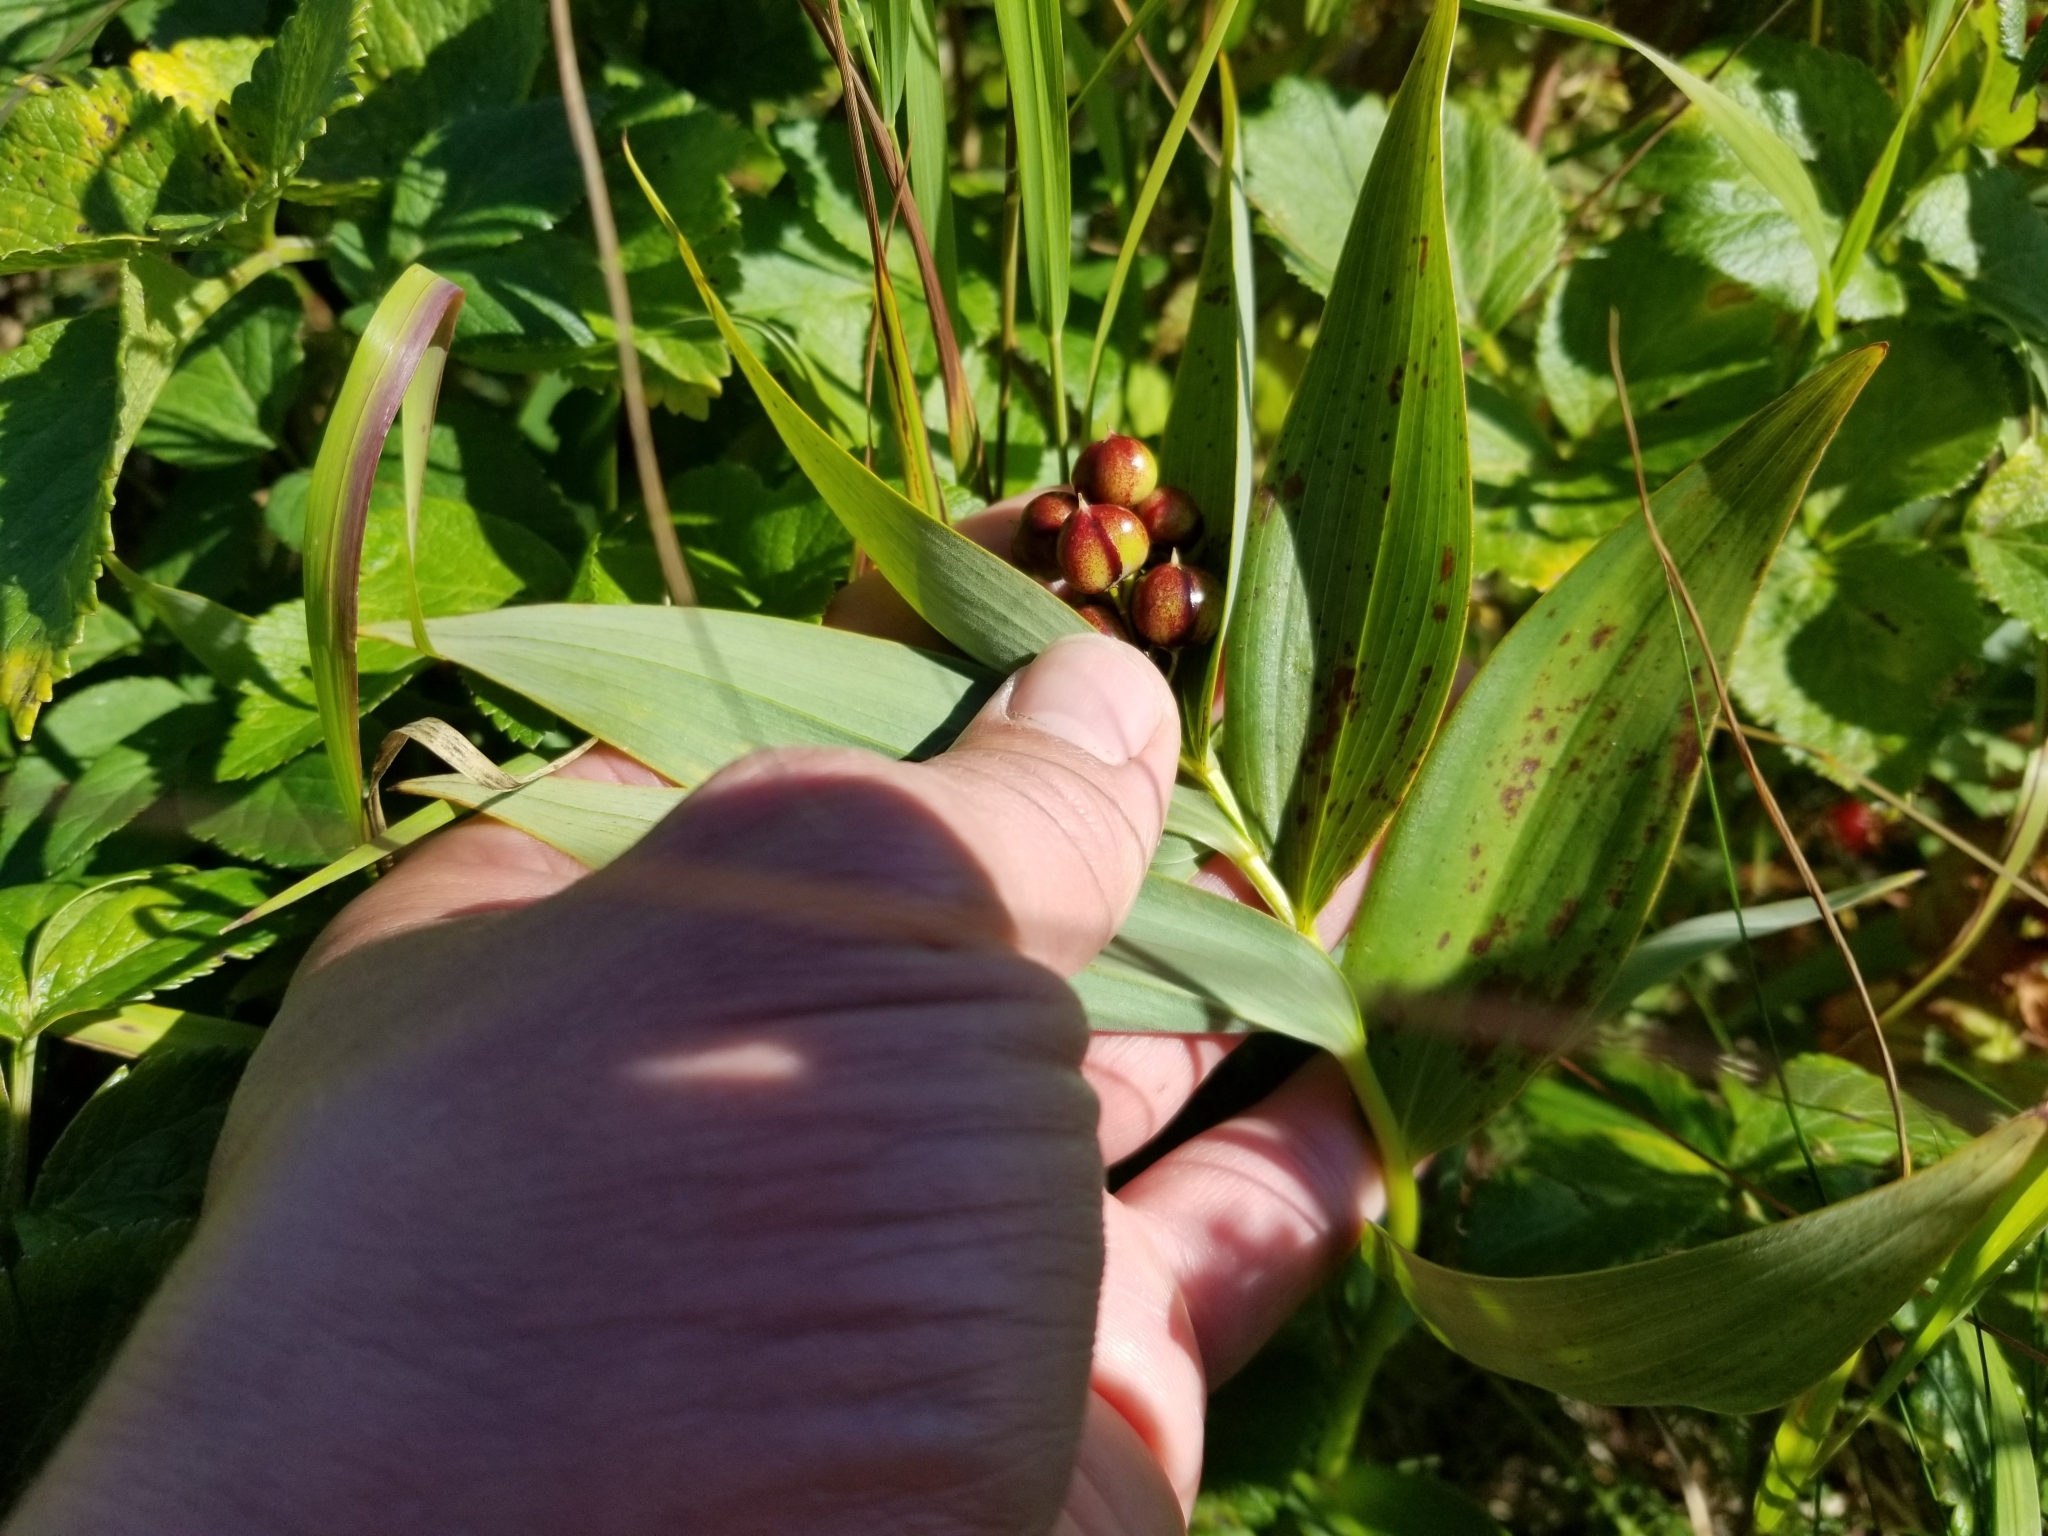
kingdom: Plantae
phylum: Tracheophyta
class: Liliopsida
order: Asparagales
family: Asparagaceae
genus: Maianthemum
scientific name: Maianthemum stellatum
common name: Little false solomon's seal
